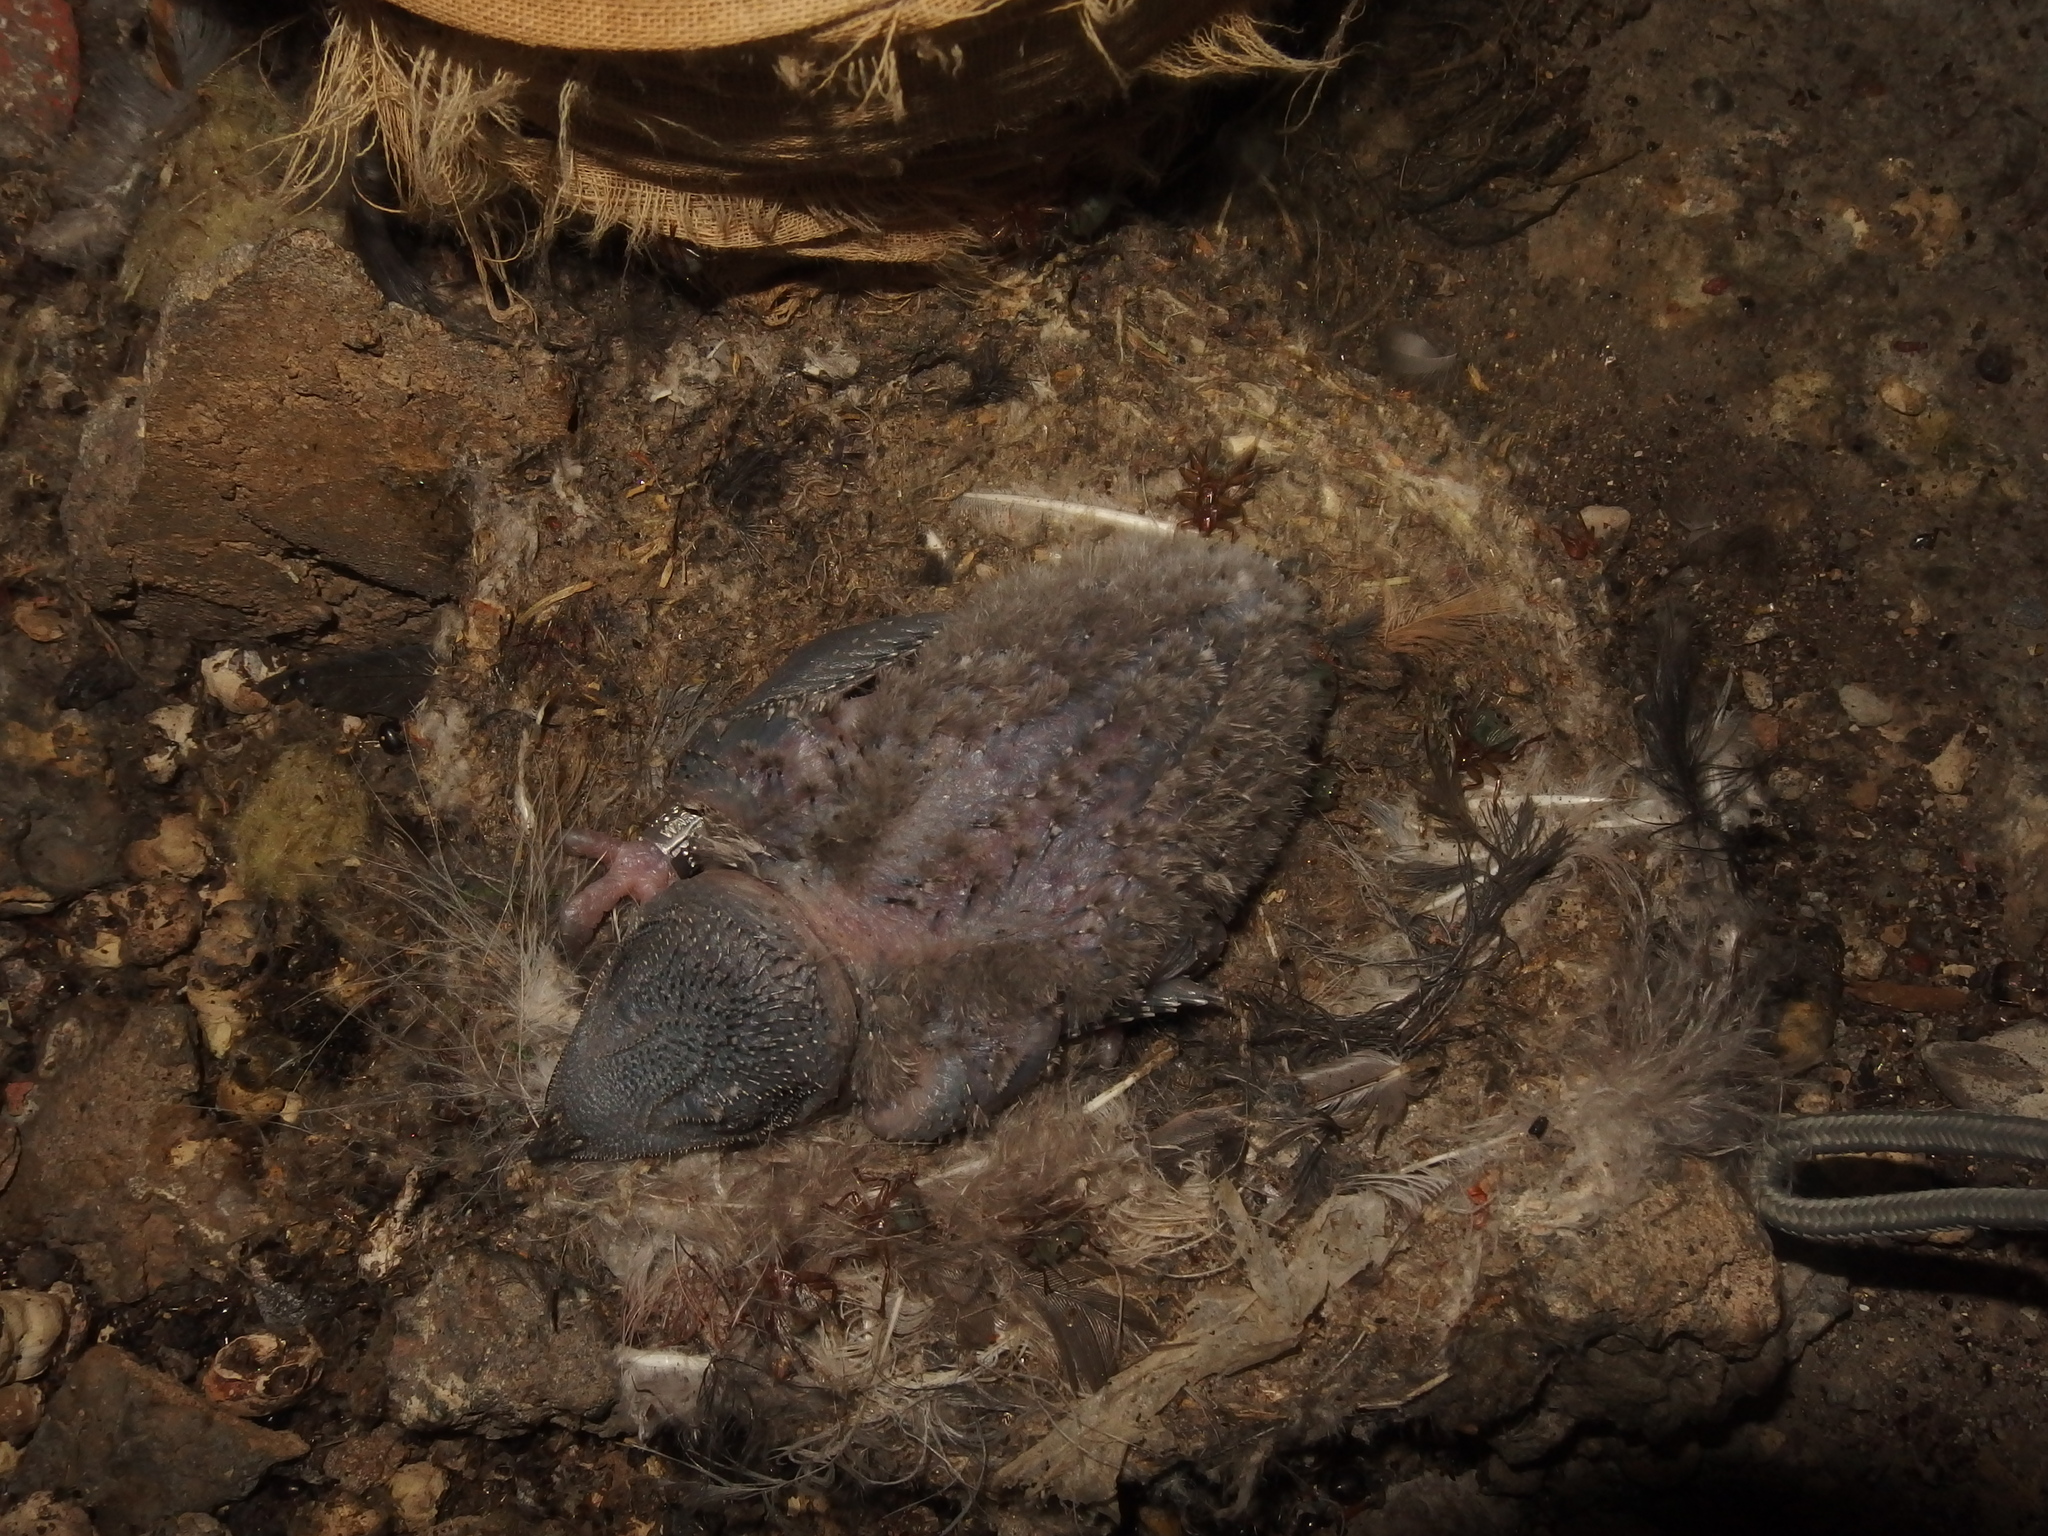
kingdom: Animalia
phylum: Chordata
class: Aves
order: Apodiformes
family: Apodidae
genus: Tachymarptis
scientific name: Tachymarptis melba
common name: Alpine swift
